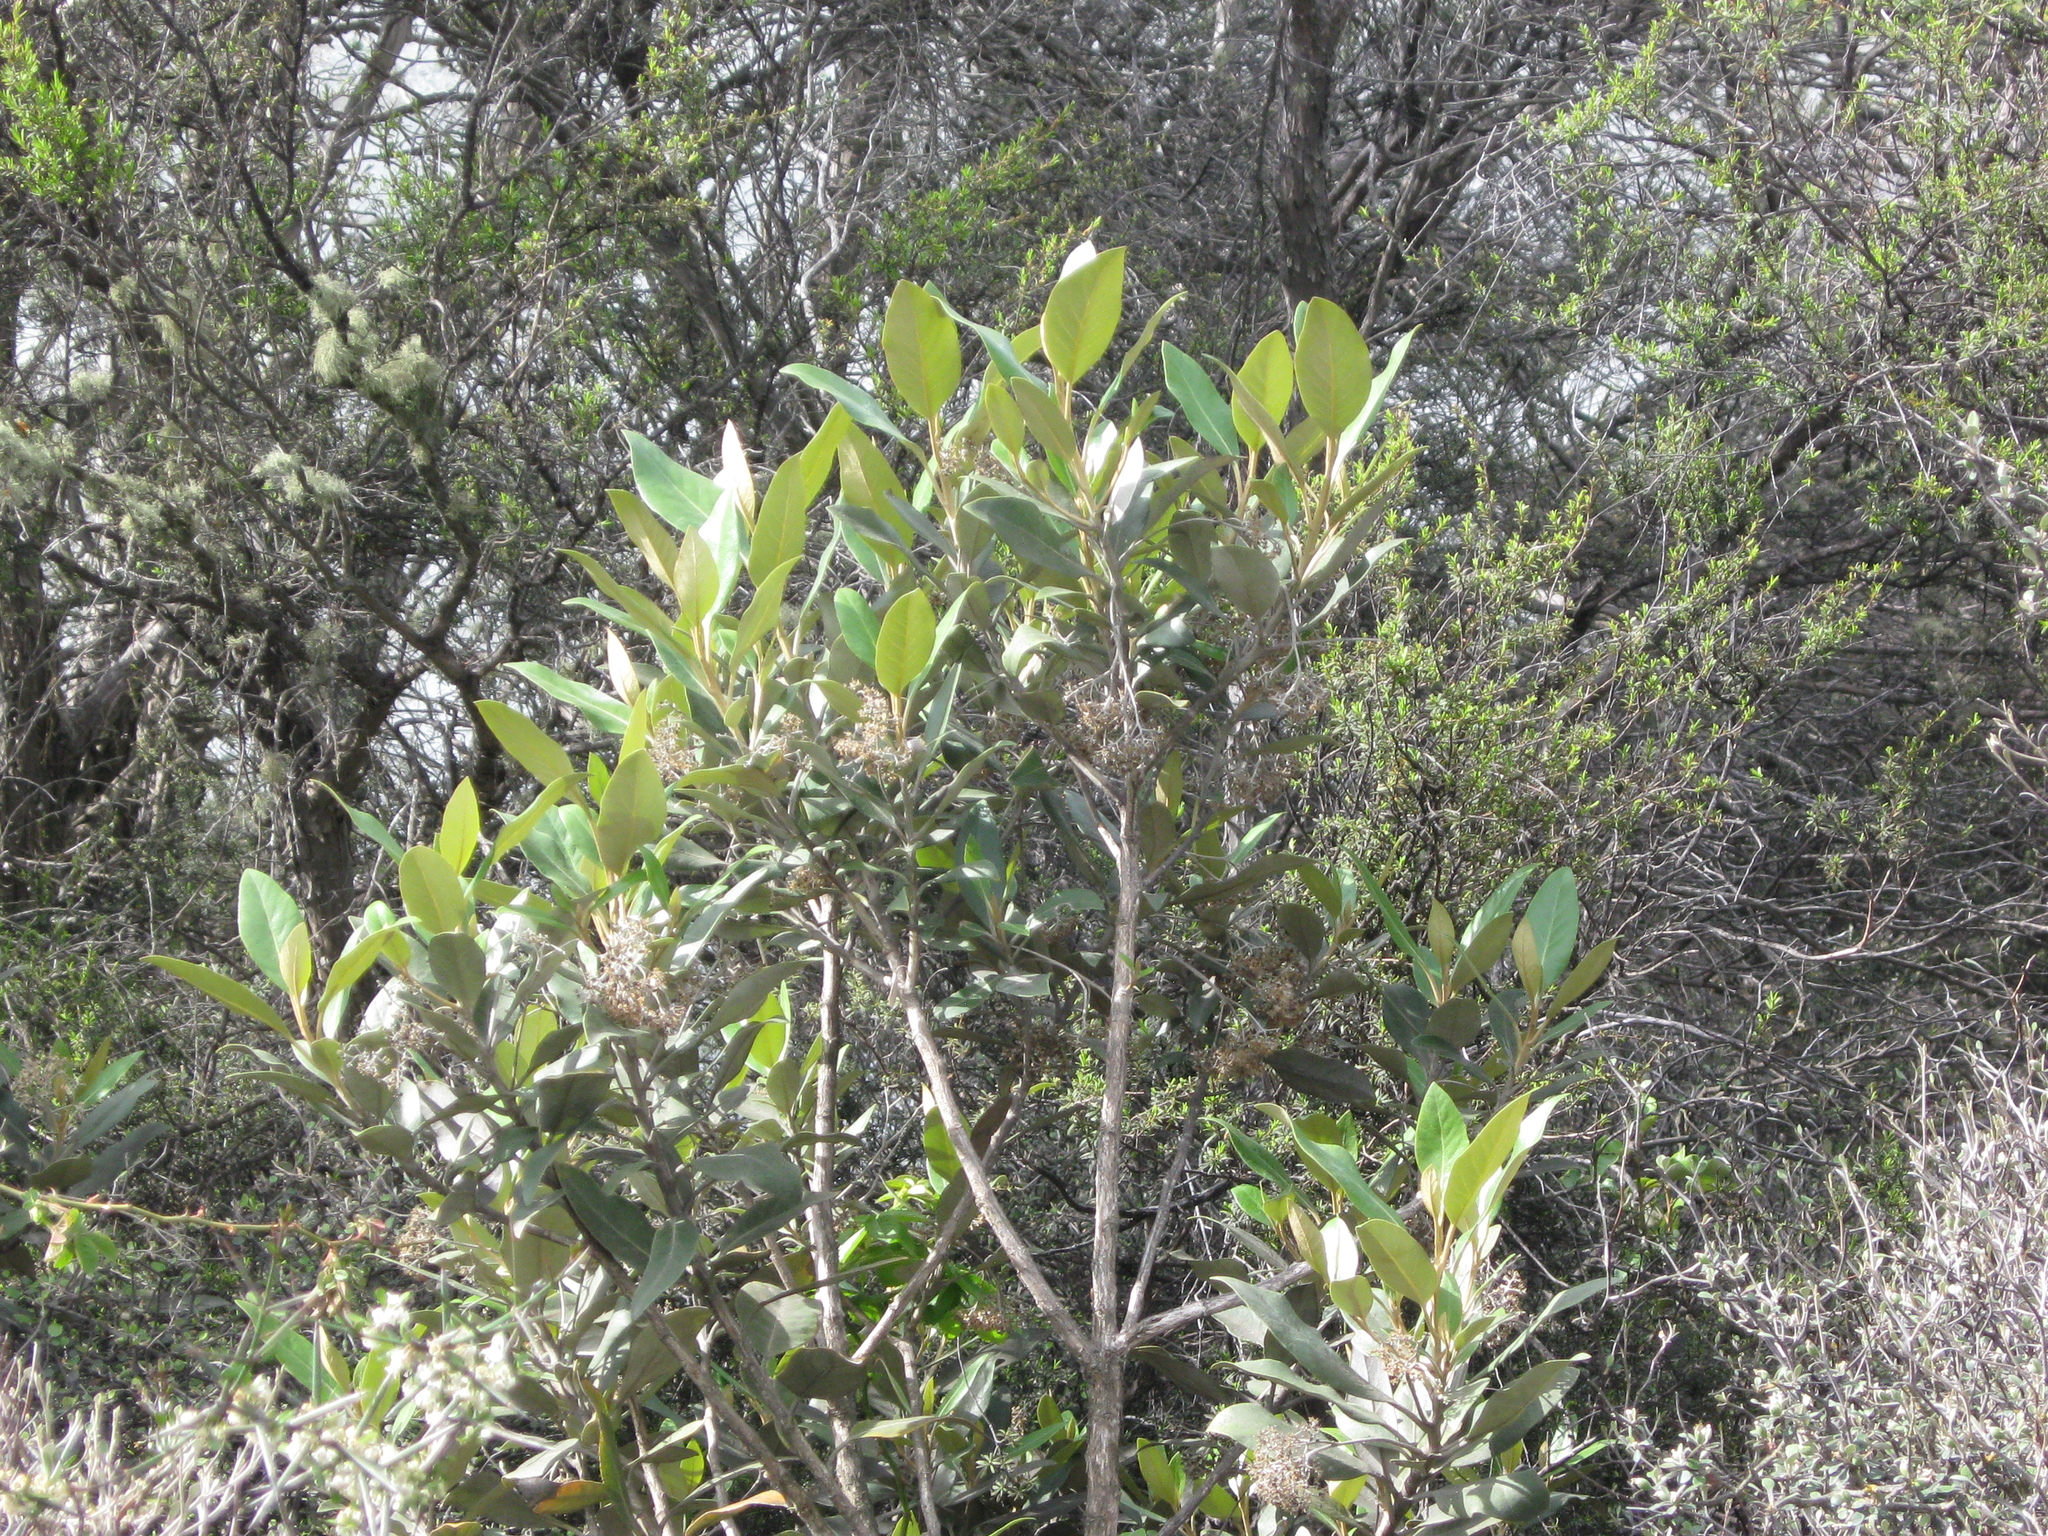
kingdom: Plantae
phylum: Tracheophyta
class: Magnoliopsida
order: Asterales
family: Asteraceae
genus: Olearia
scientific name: Olearia avicenniifolia
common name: Mangrove-leaf daisybush
